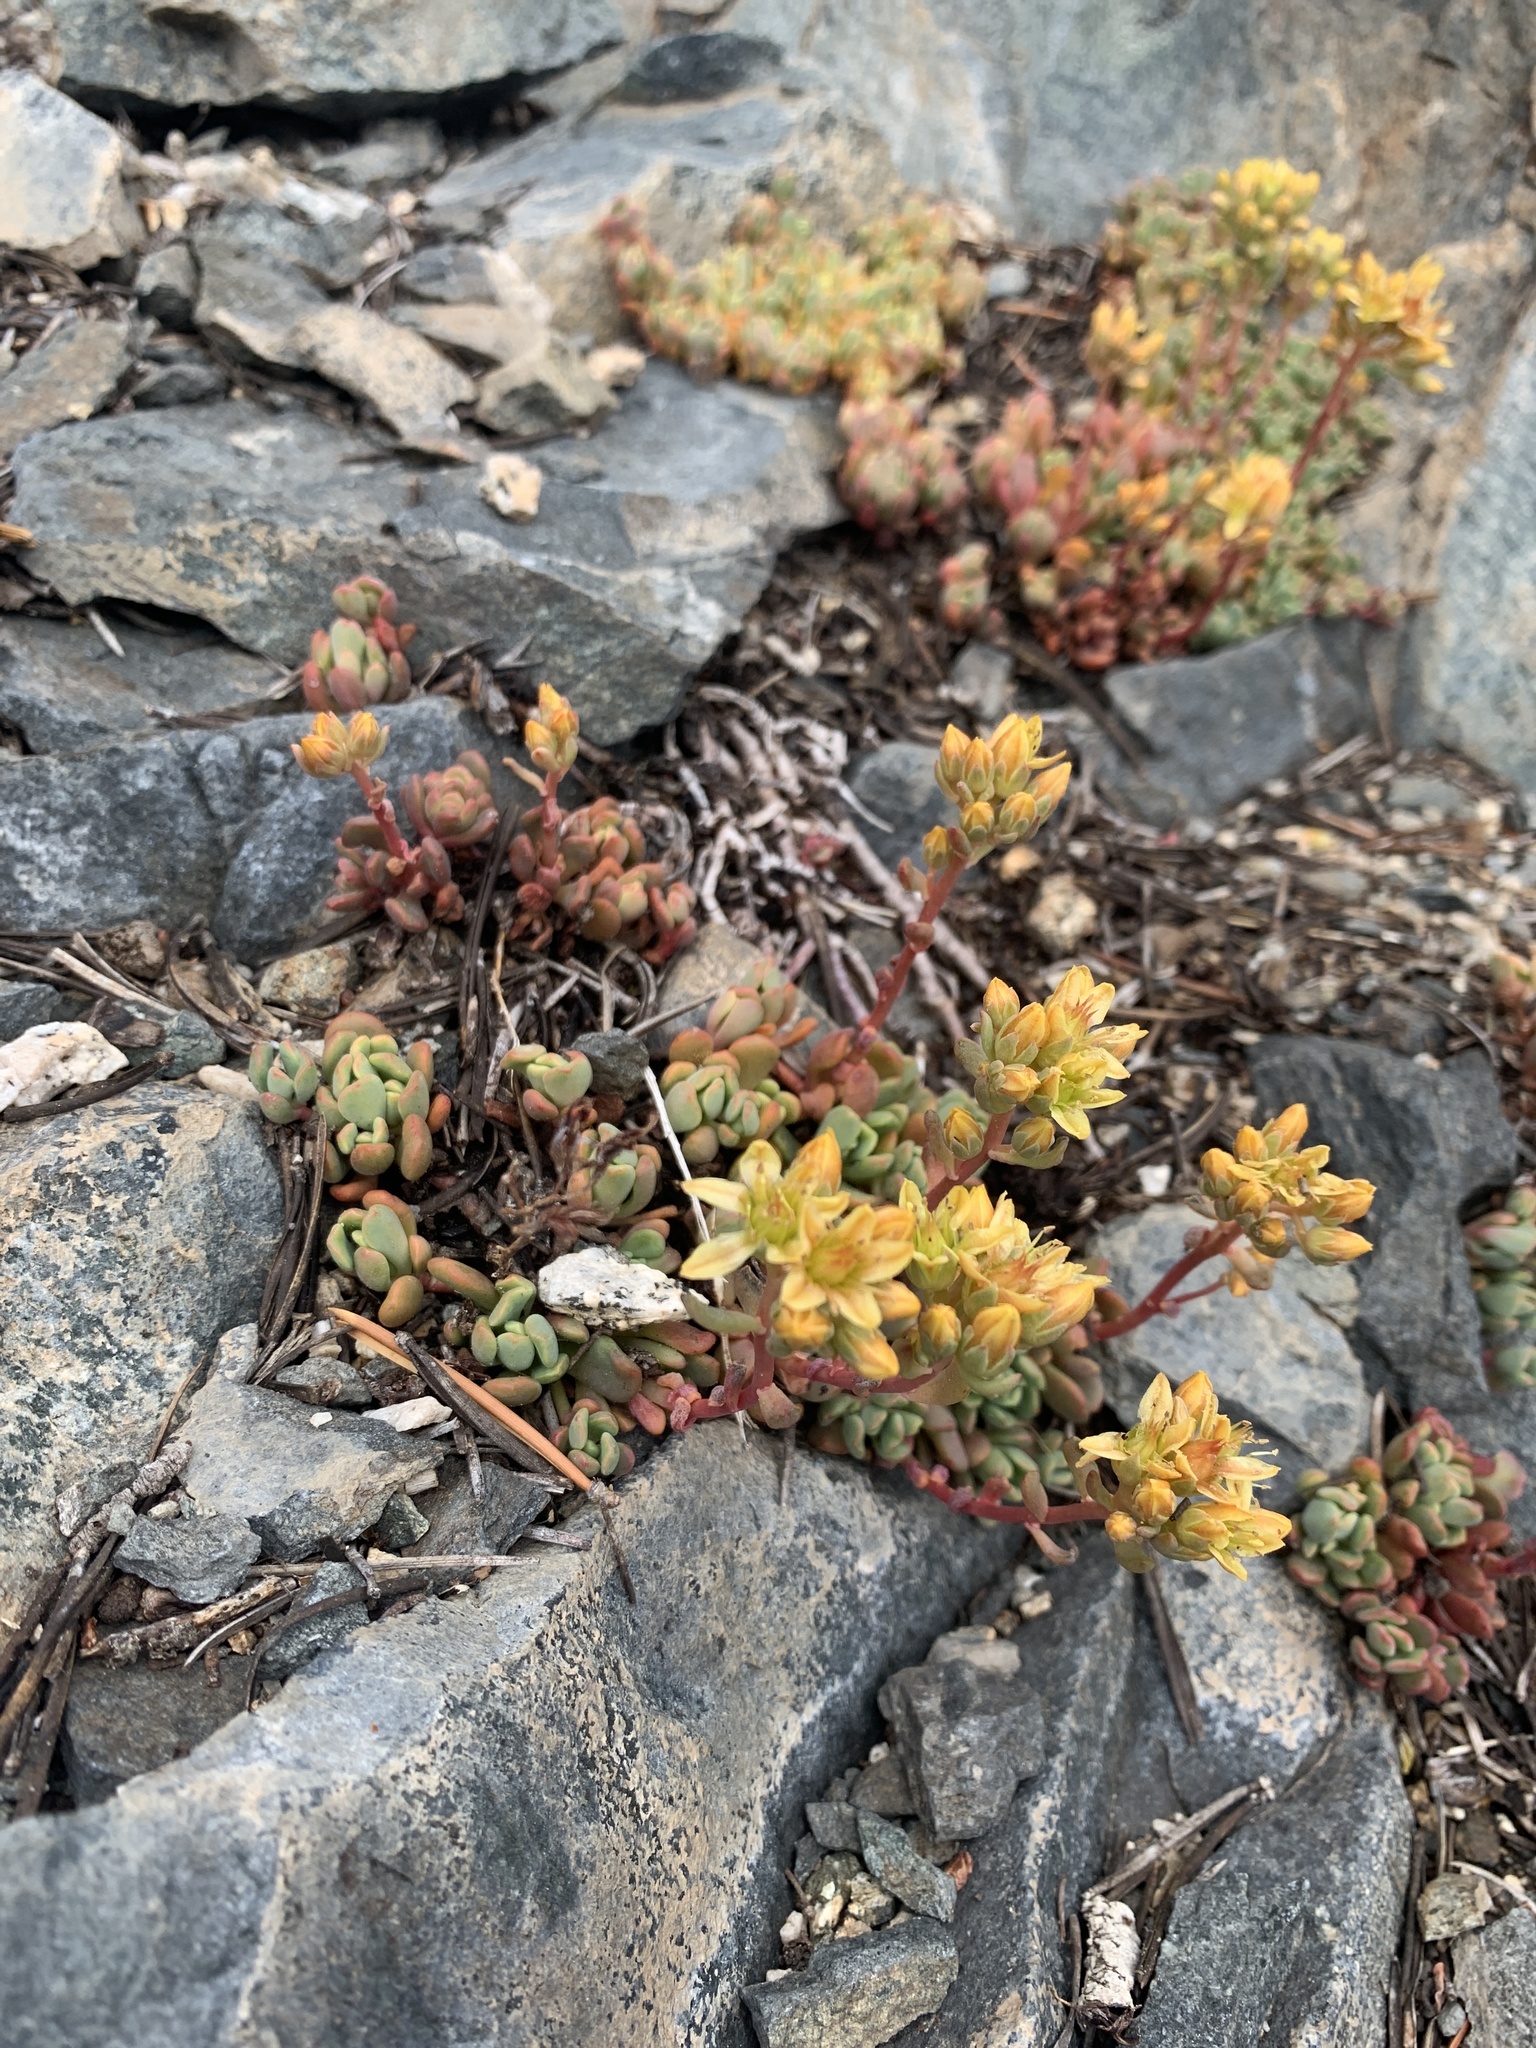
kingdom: Plantae
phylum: Tracheophyta
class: Magnoliopsida
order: Saxifragales
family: Crassulaceae
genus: Sedum
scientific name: Sedum obtusatum
